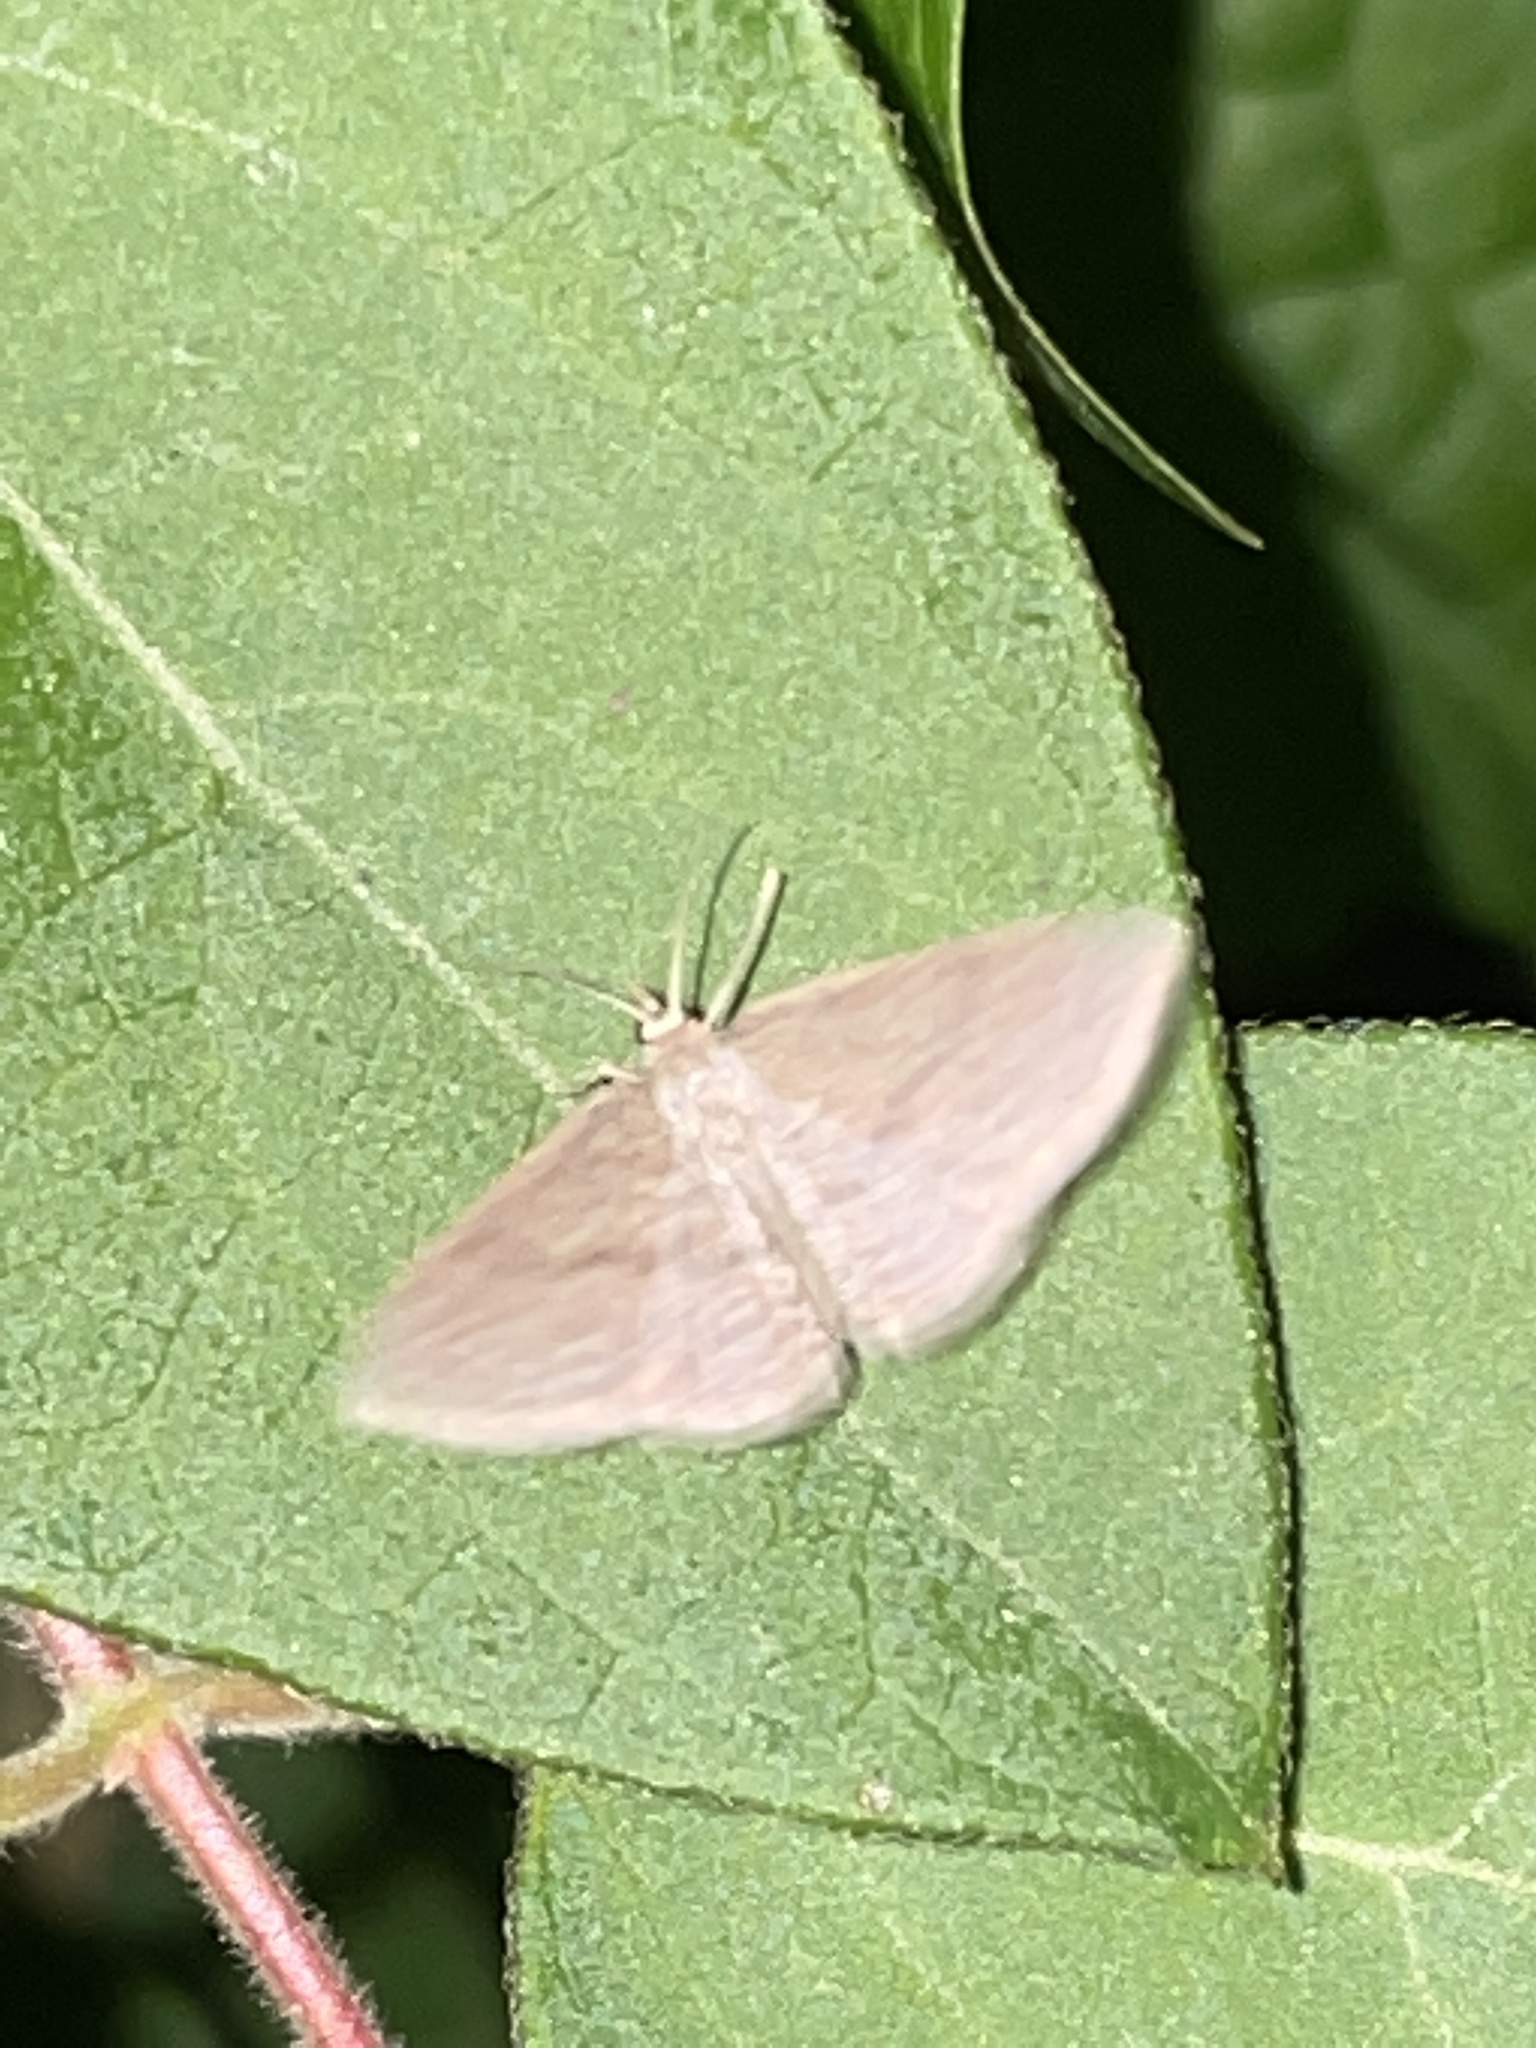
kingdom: Animalia
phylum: Arthropoda
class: Insecta
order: Lepidoptera
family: Geometridae
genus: Pleuroprucha
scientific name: Pleuroprucha insulsaria
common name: Common tan wave
